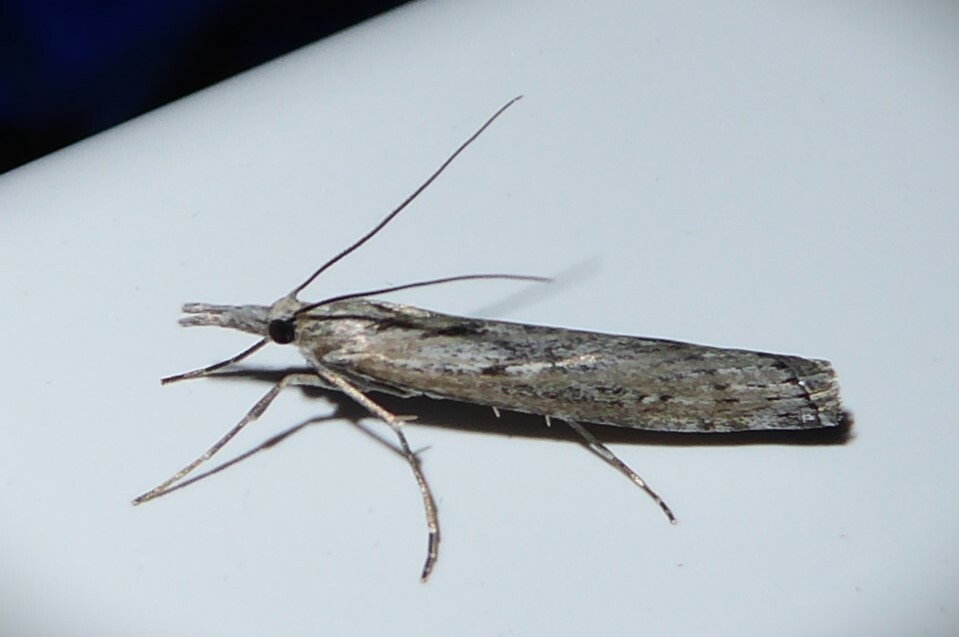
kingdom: Animalia
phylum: Arthropoda
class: Insecta
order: Lepidoptera
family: Crambidae
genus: Orocrambus
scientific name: Orocrambus cyclopicus
